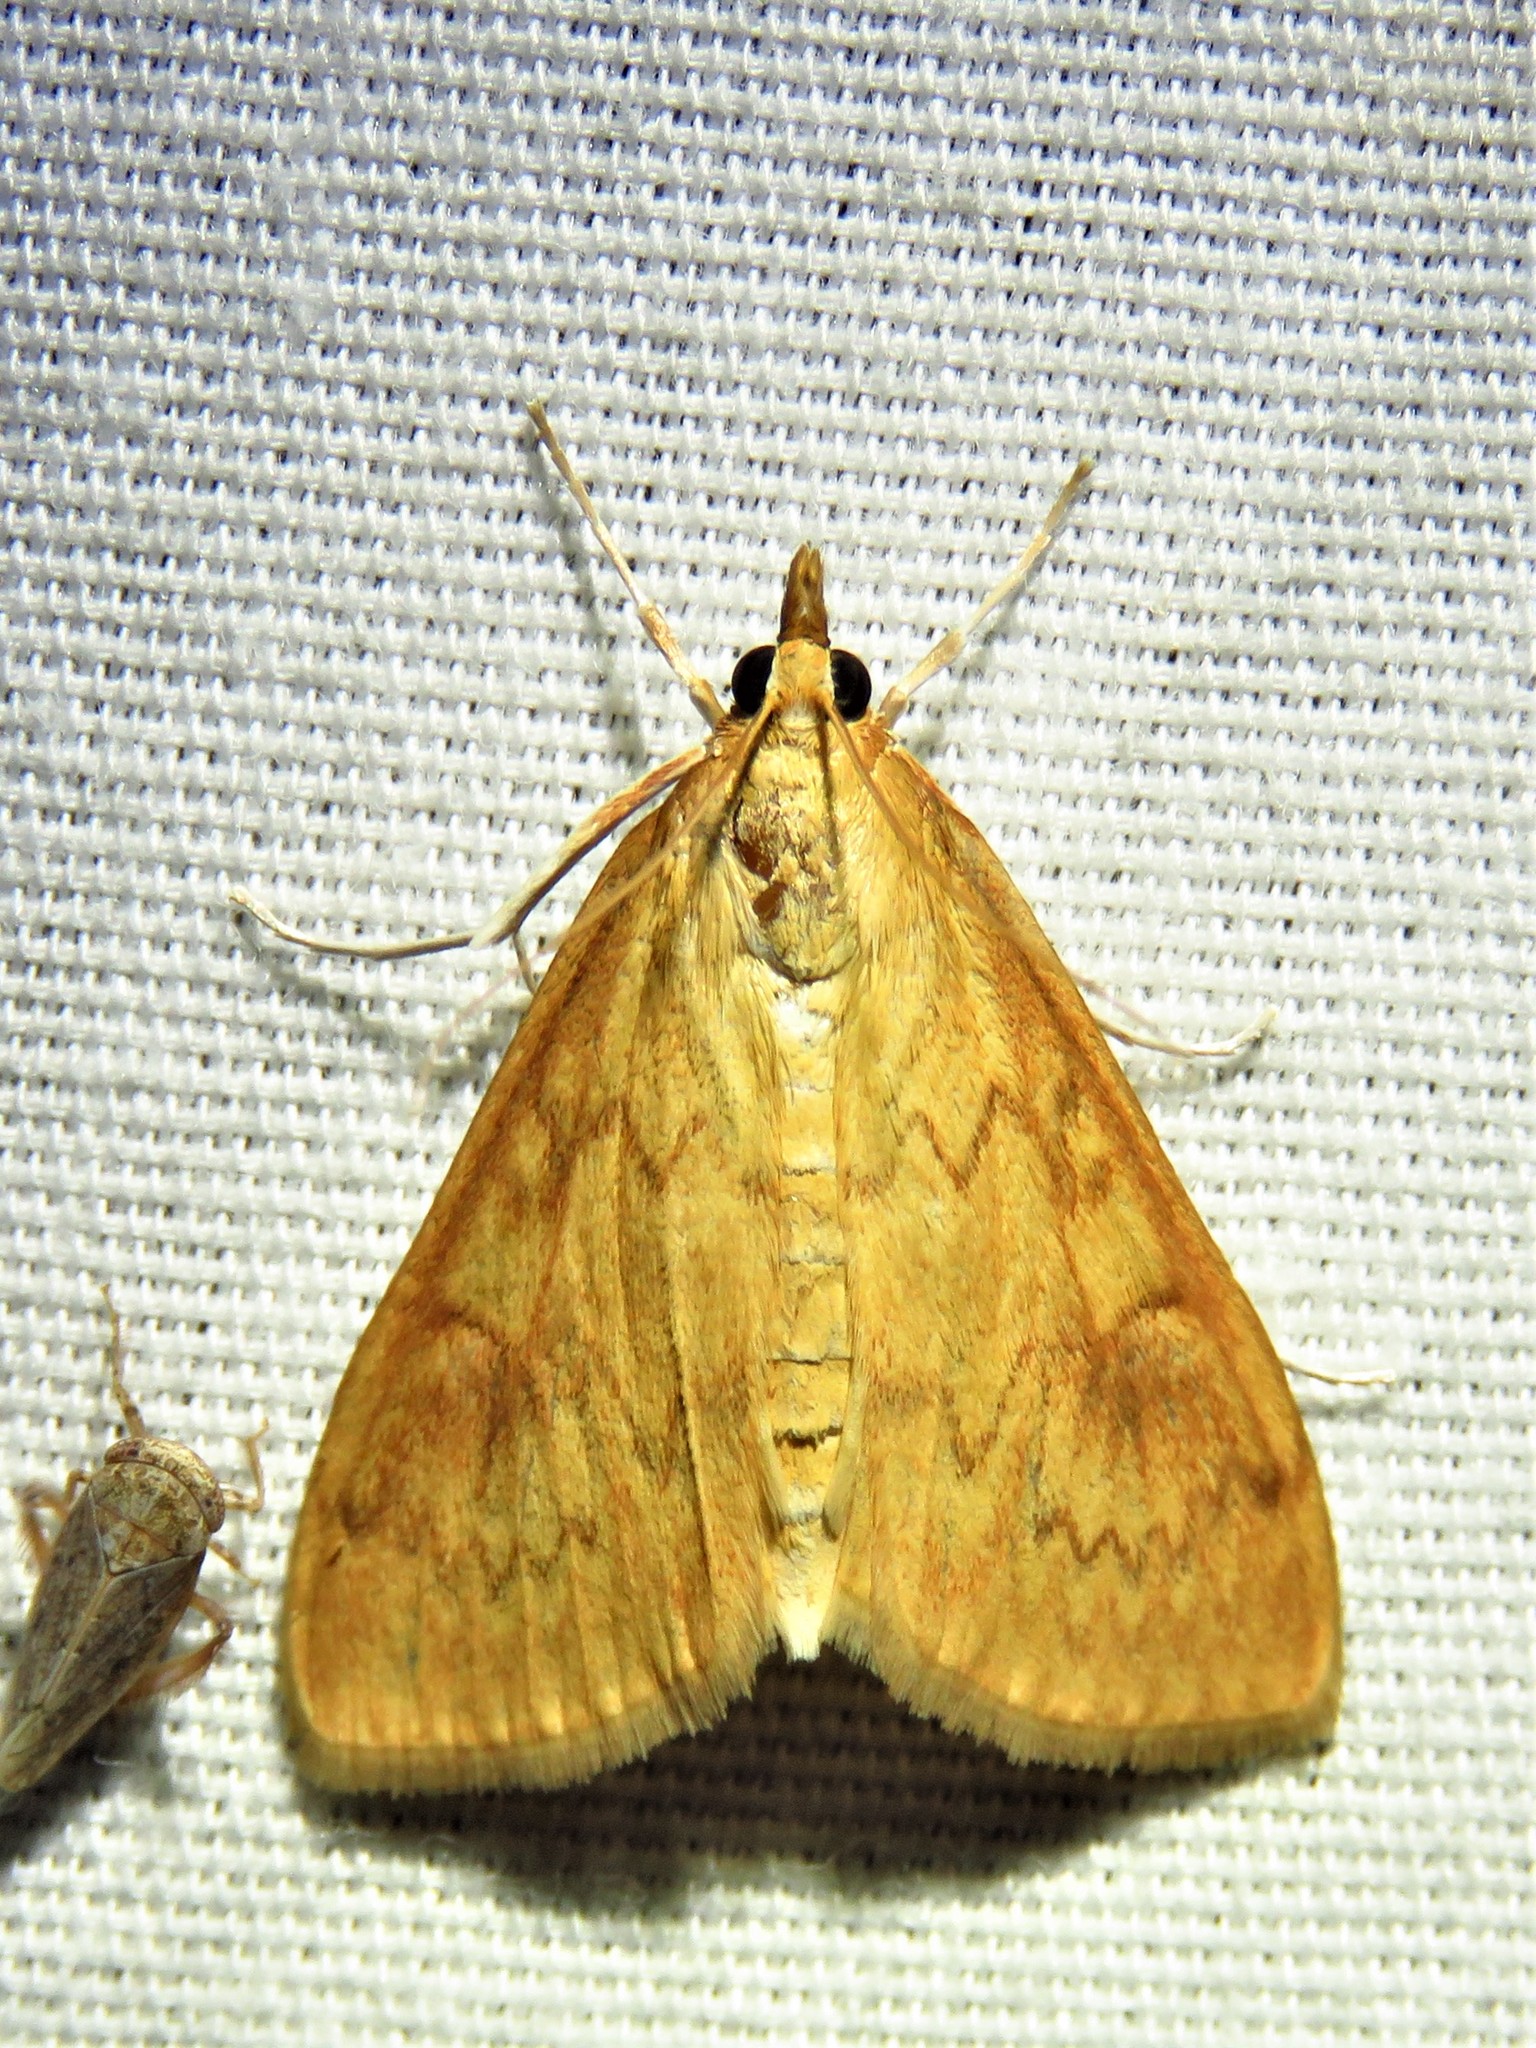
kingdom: Animalia
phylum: Arthropoda
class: Insecta
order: Lepidoptera
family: Crambidae
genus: Ostrinia
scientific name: Ostrinia penitalis
